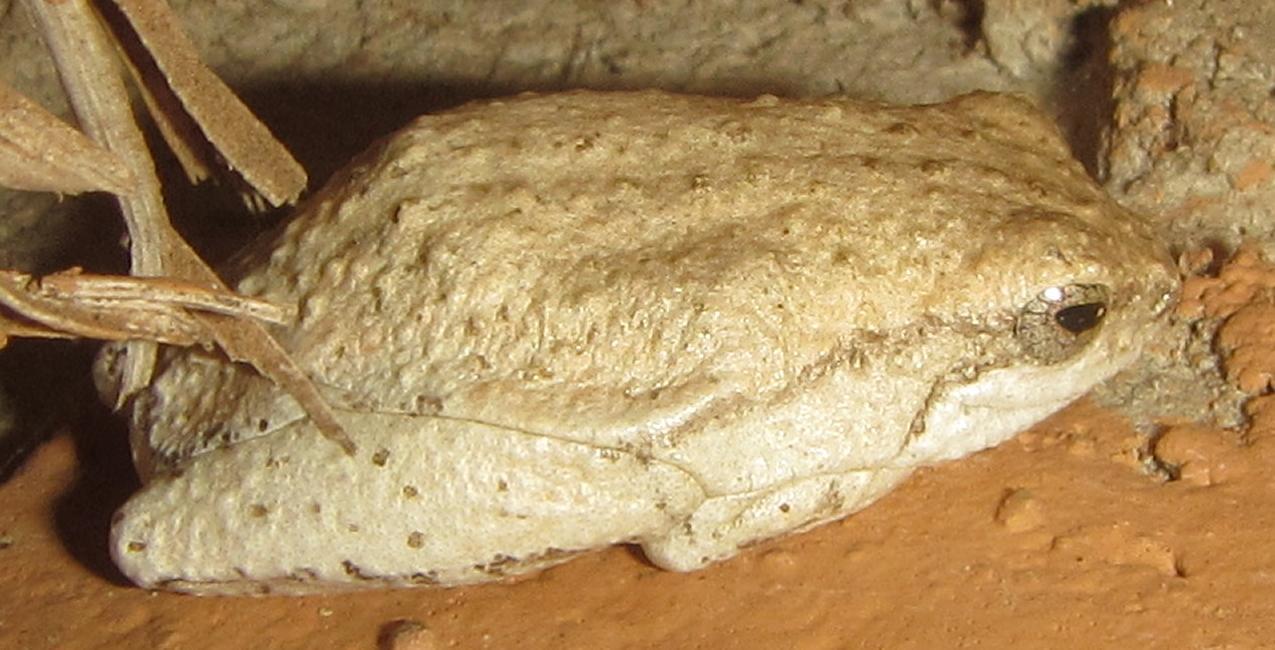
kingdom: Animalia
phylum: Chordata
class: Amphibia
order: Anura
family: Rhacophoridae
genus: Chiromantis
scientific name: Chiromantis xerampelina
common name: African gray treefrog
